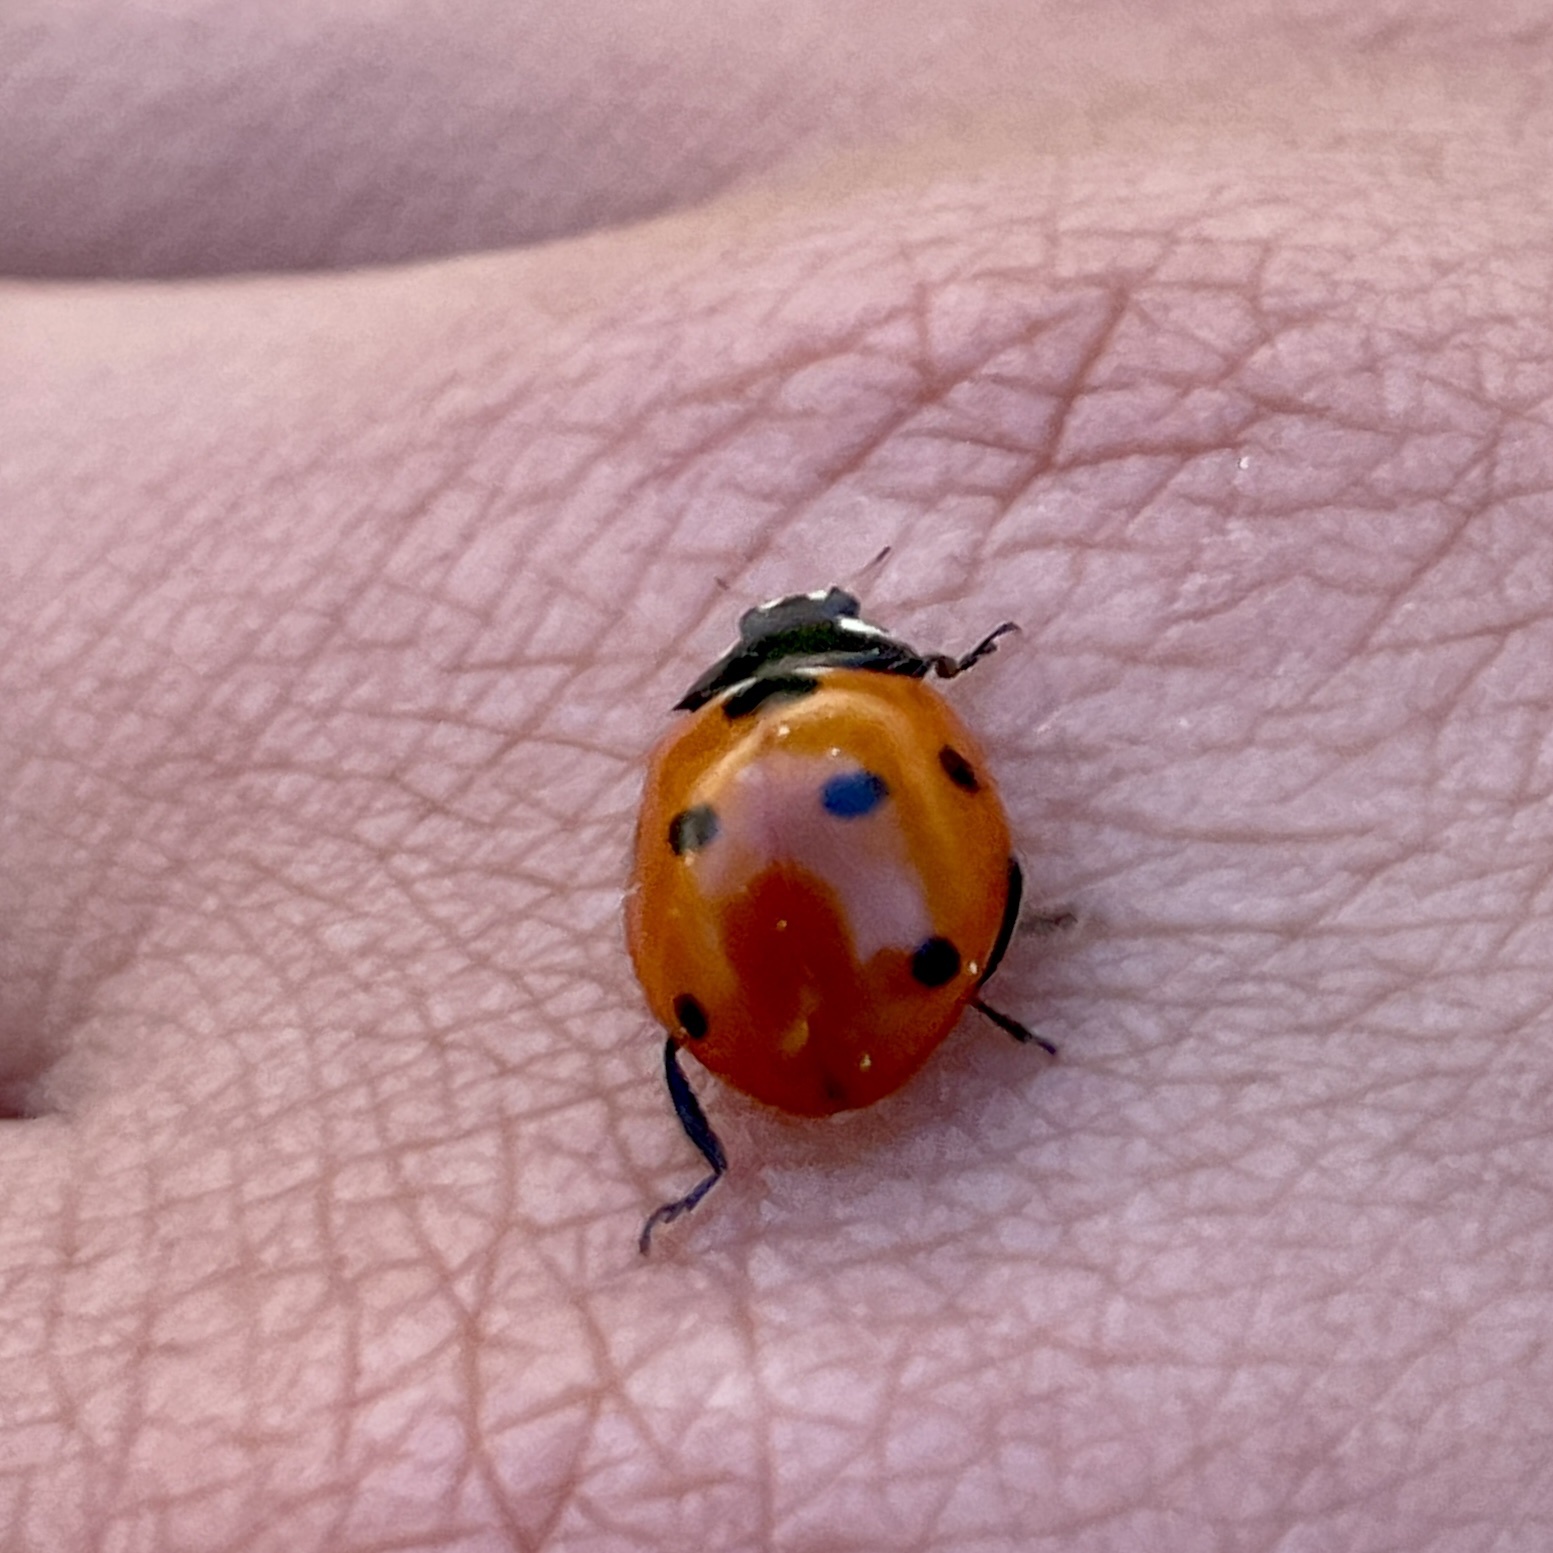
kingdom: Animalia
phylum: Arthropoda
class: Insecta
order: Coleoptera
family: Coccinellidae
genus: Coccinella
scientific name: Coccinella septempunctata
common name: Sevenspotted lady beetle
